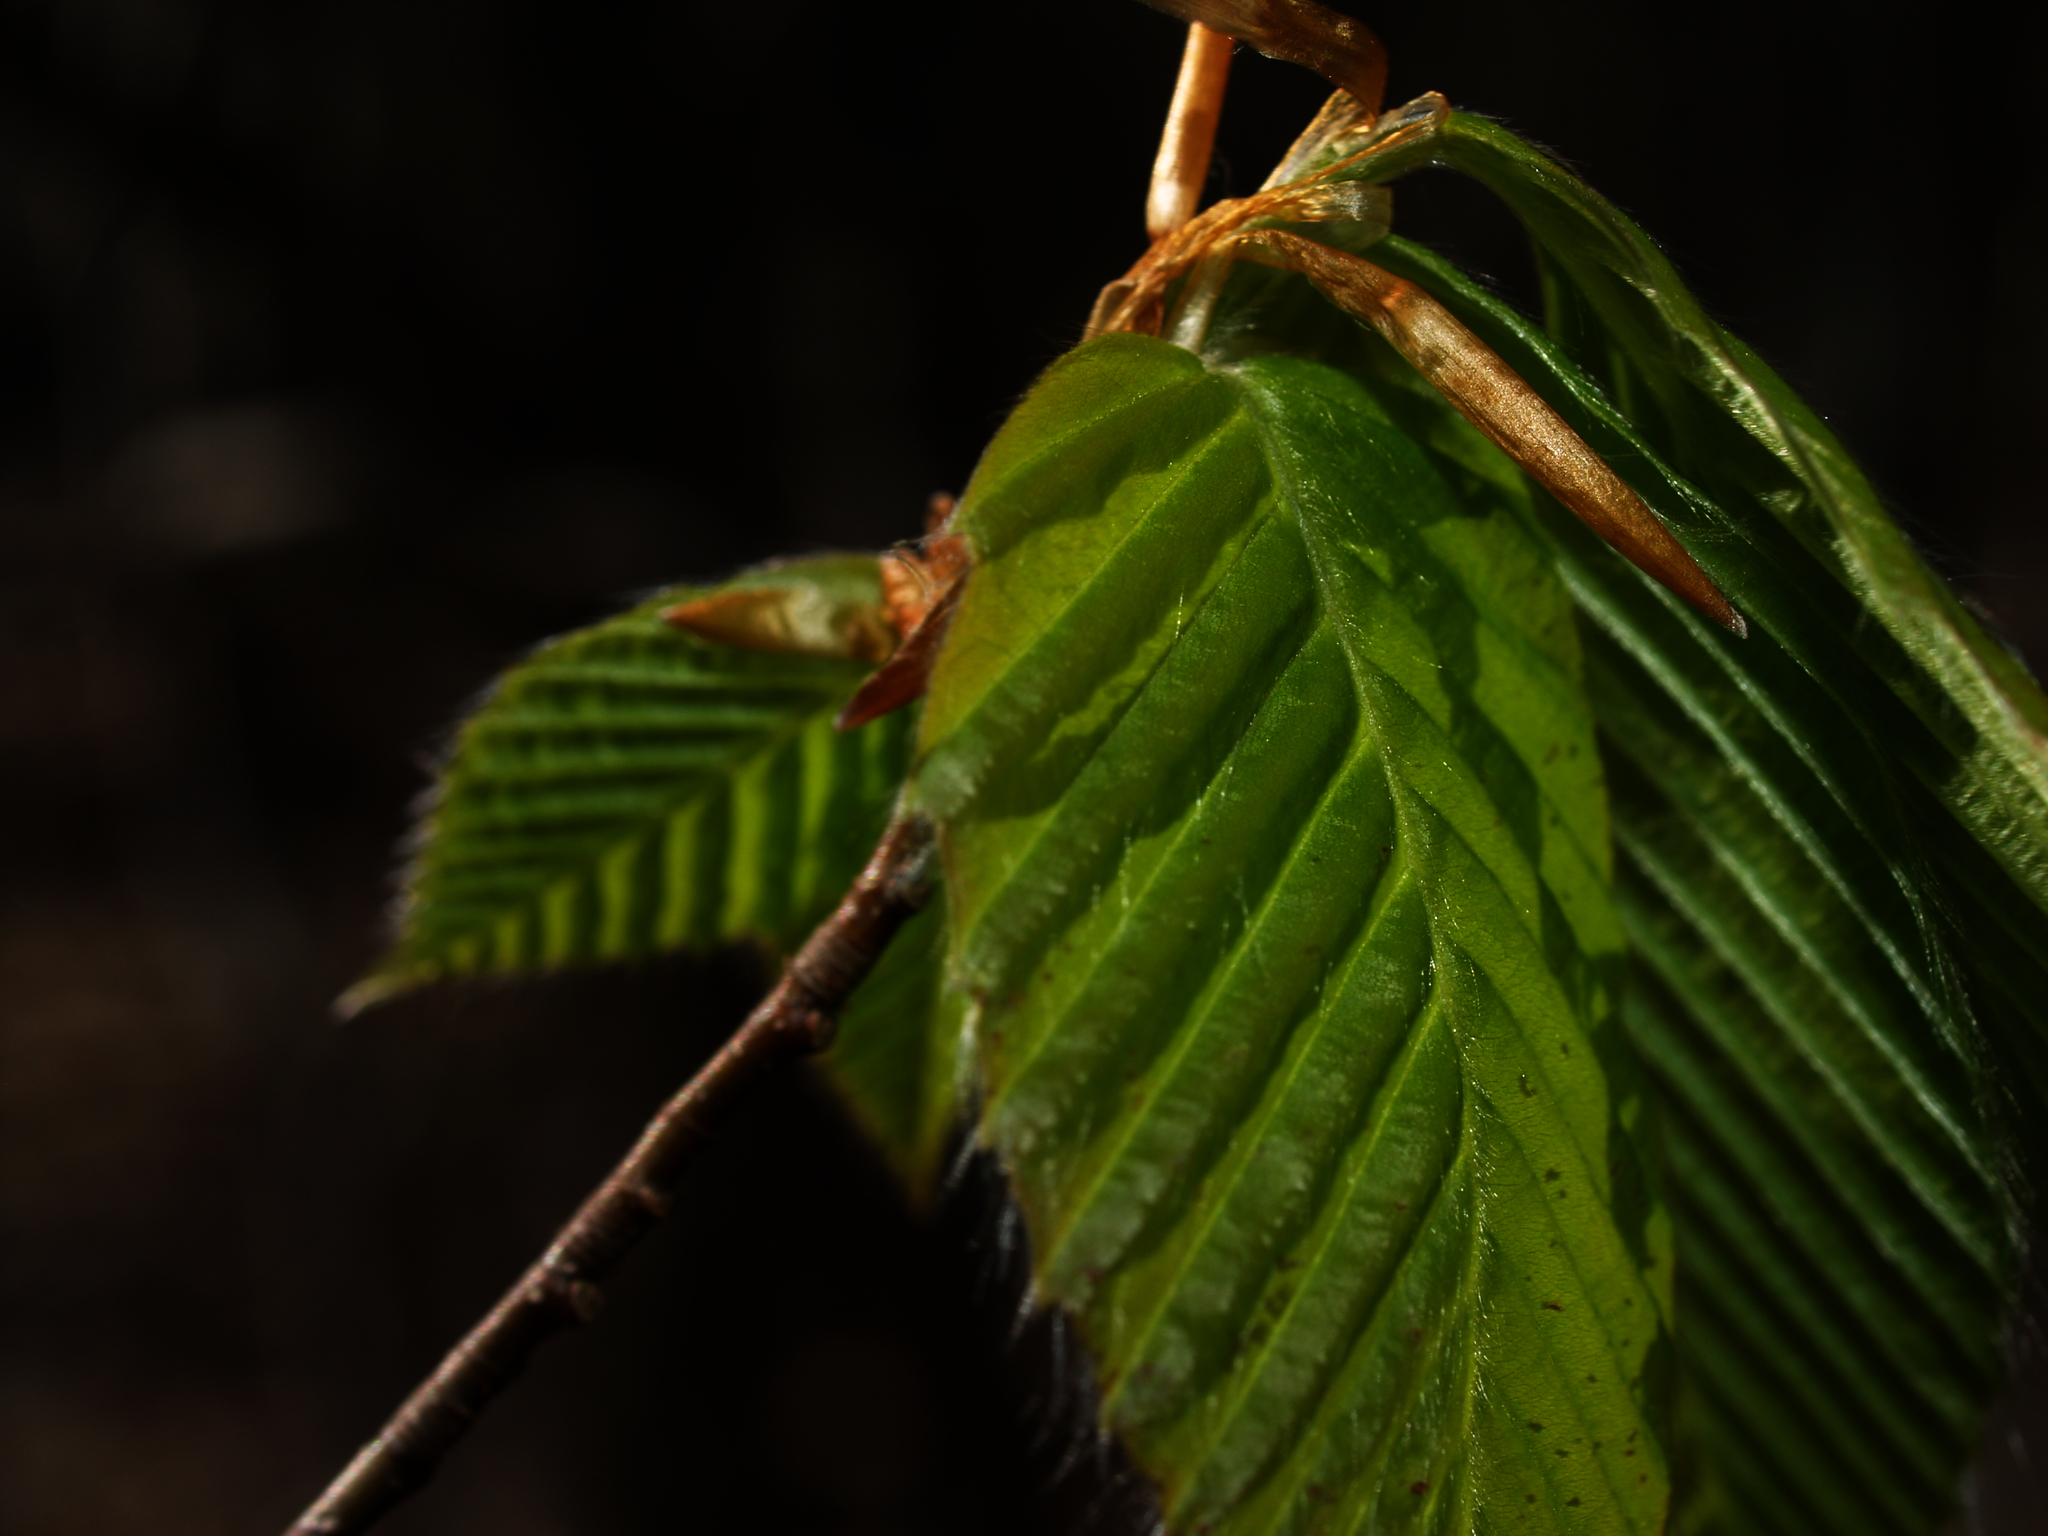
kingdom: Plantae
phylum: Tracheophyta
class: Magnoliopsida
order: Fagales
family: Fagaceae
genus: Fagus
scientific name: Fagus grandifolia
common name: American beech
